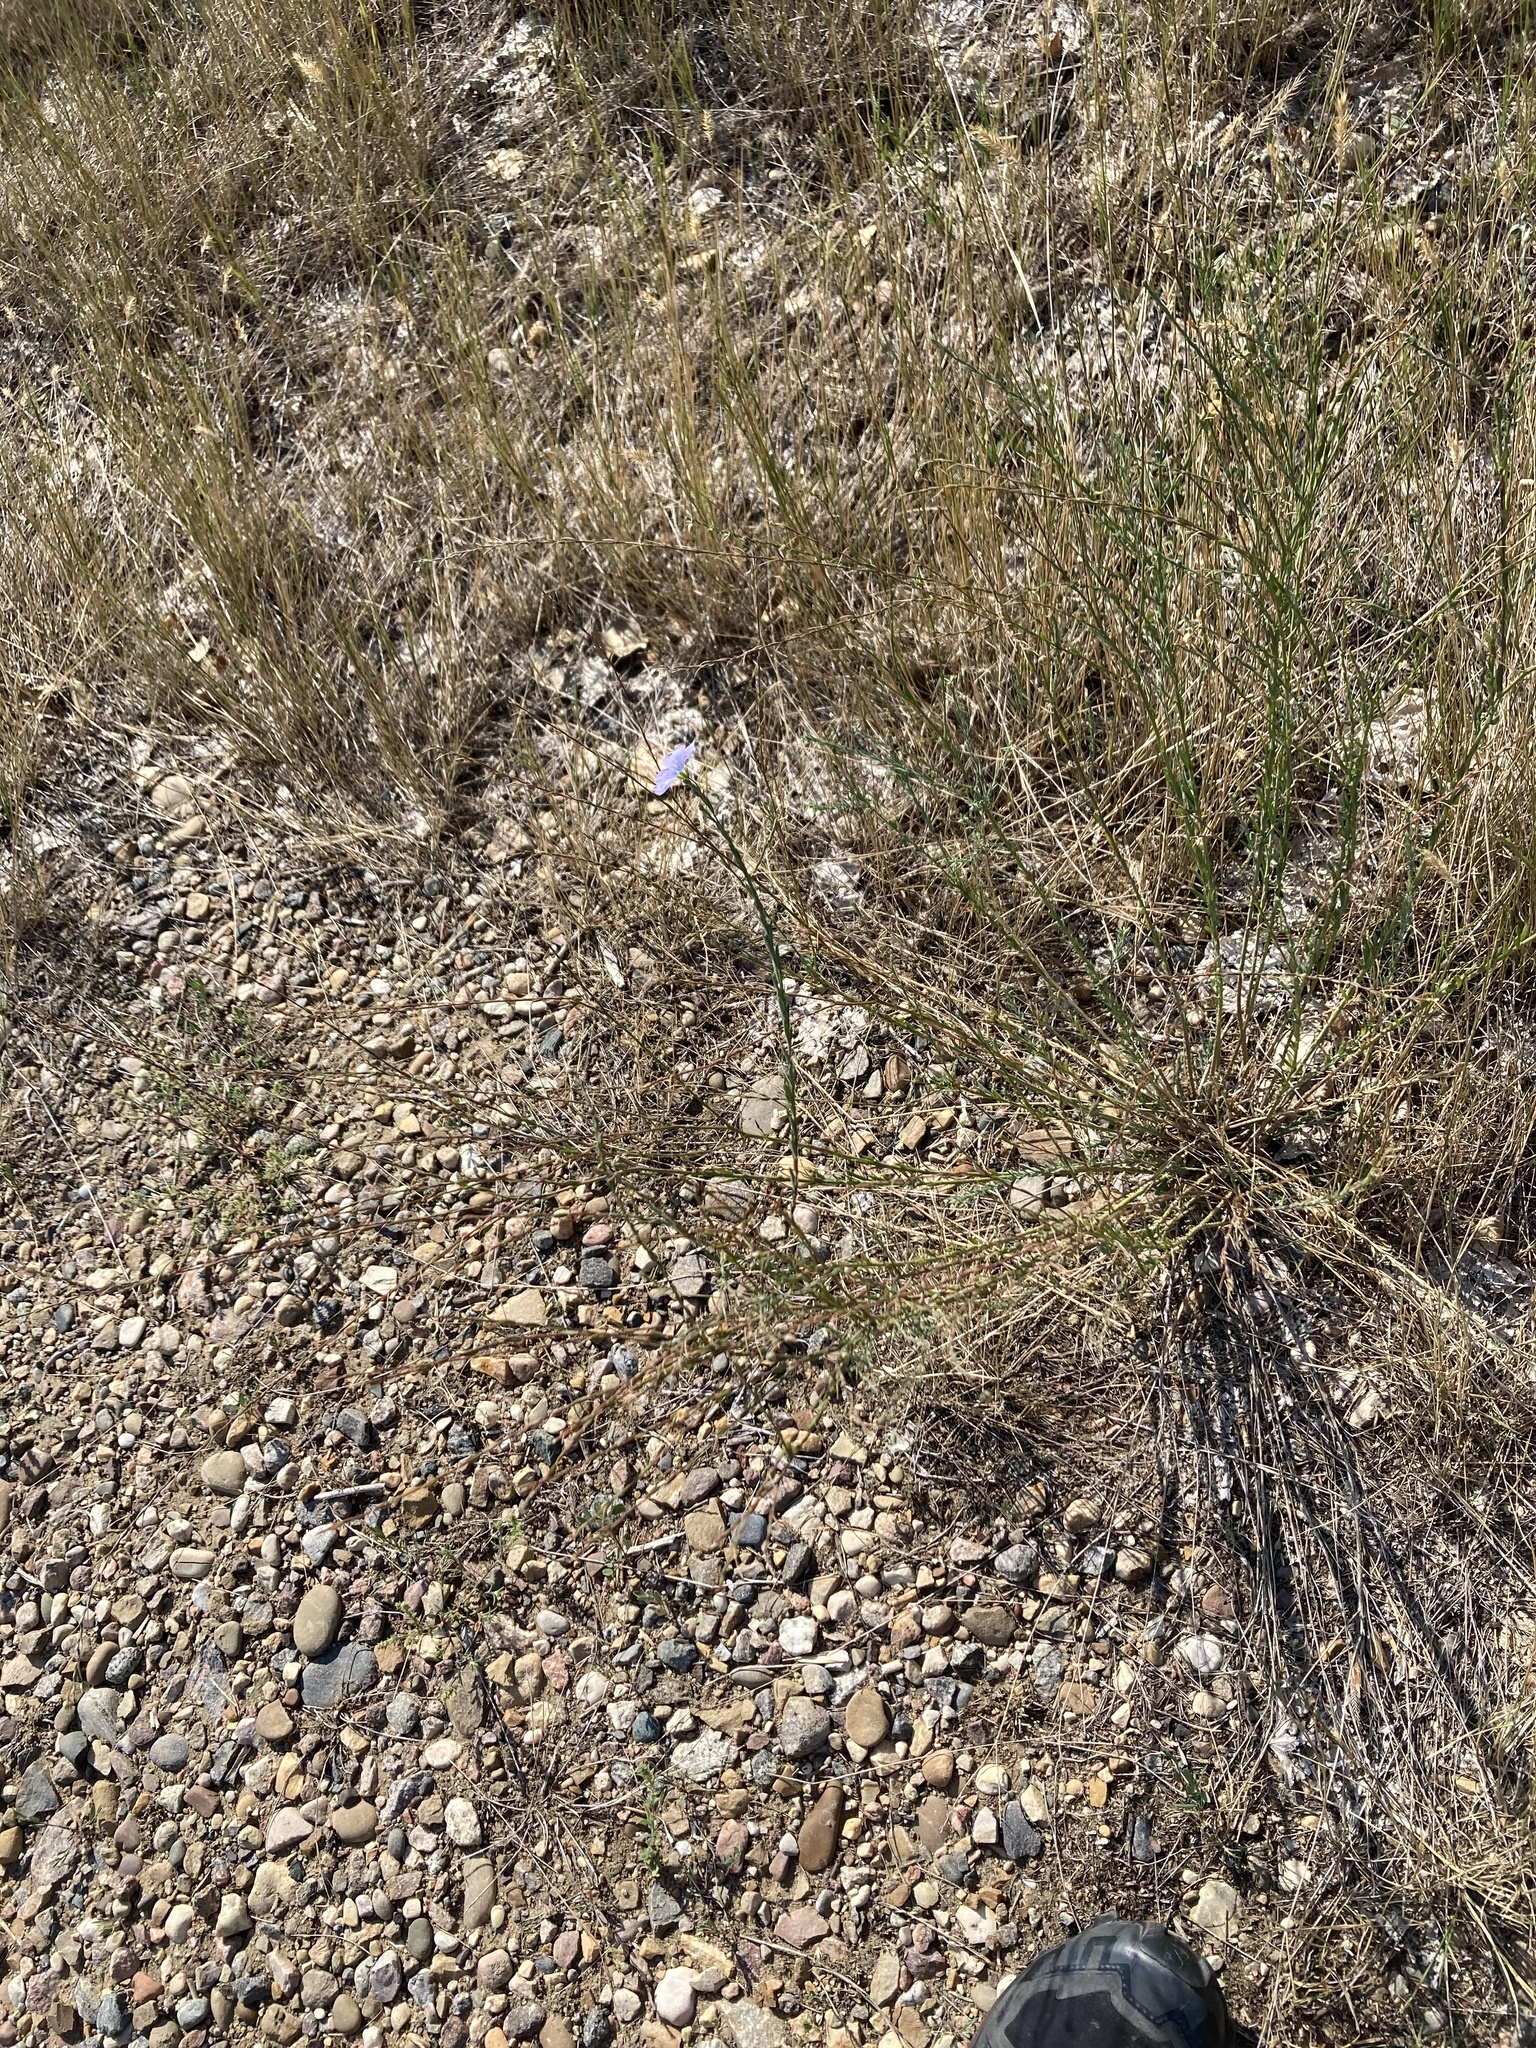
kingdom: Plantae
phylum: Tracheophyta
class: Magnoliopsida
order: Malpighiales
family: Linaceae
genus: Linum
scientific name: Linum lewisii
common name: Prairie flax
